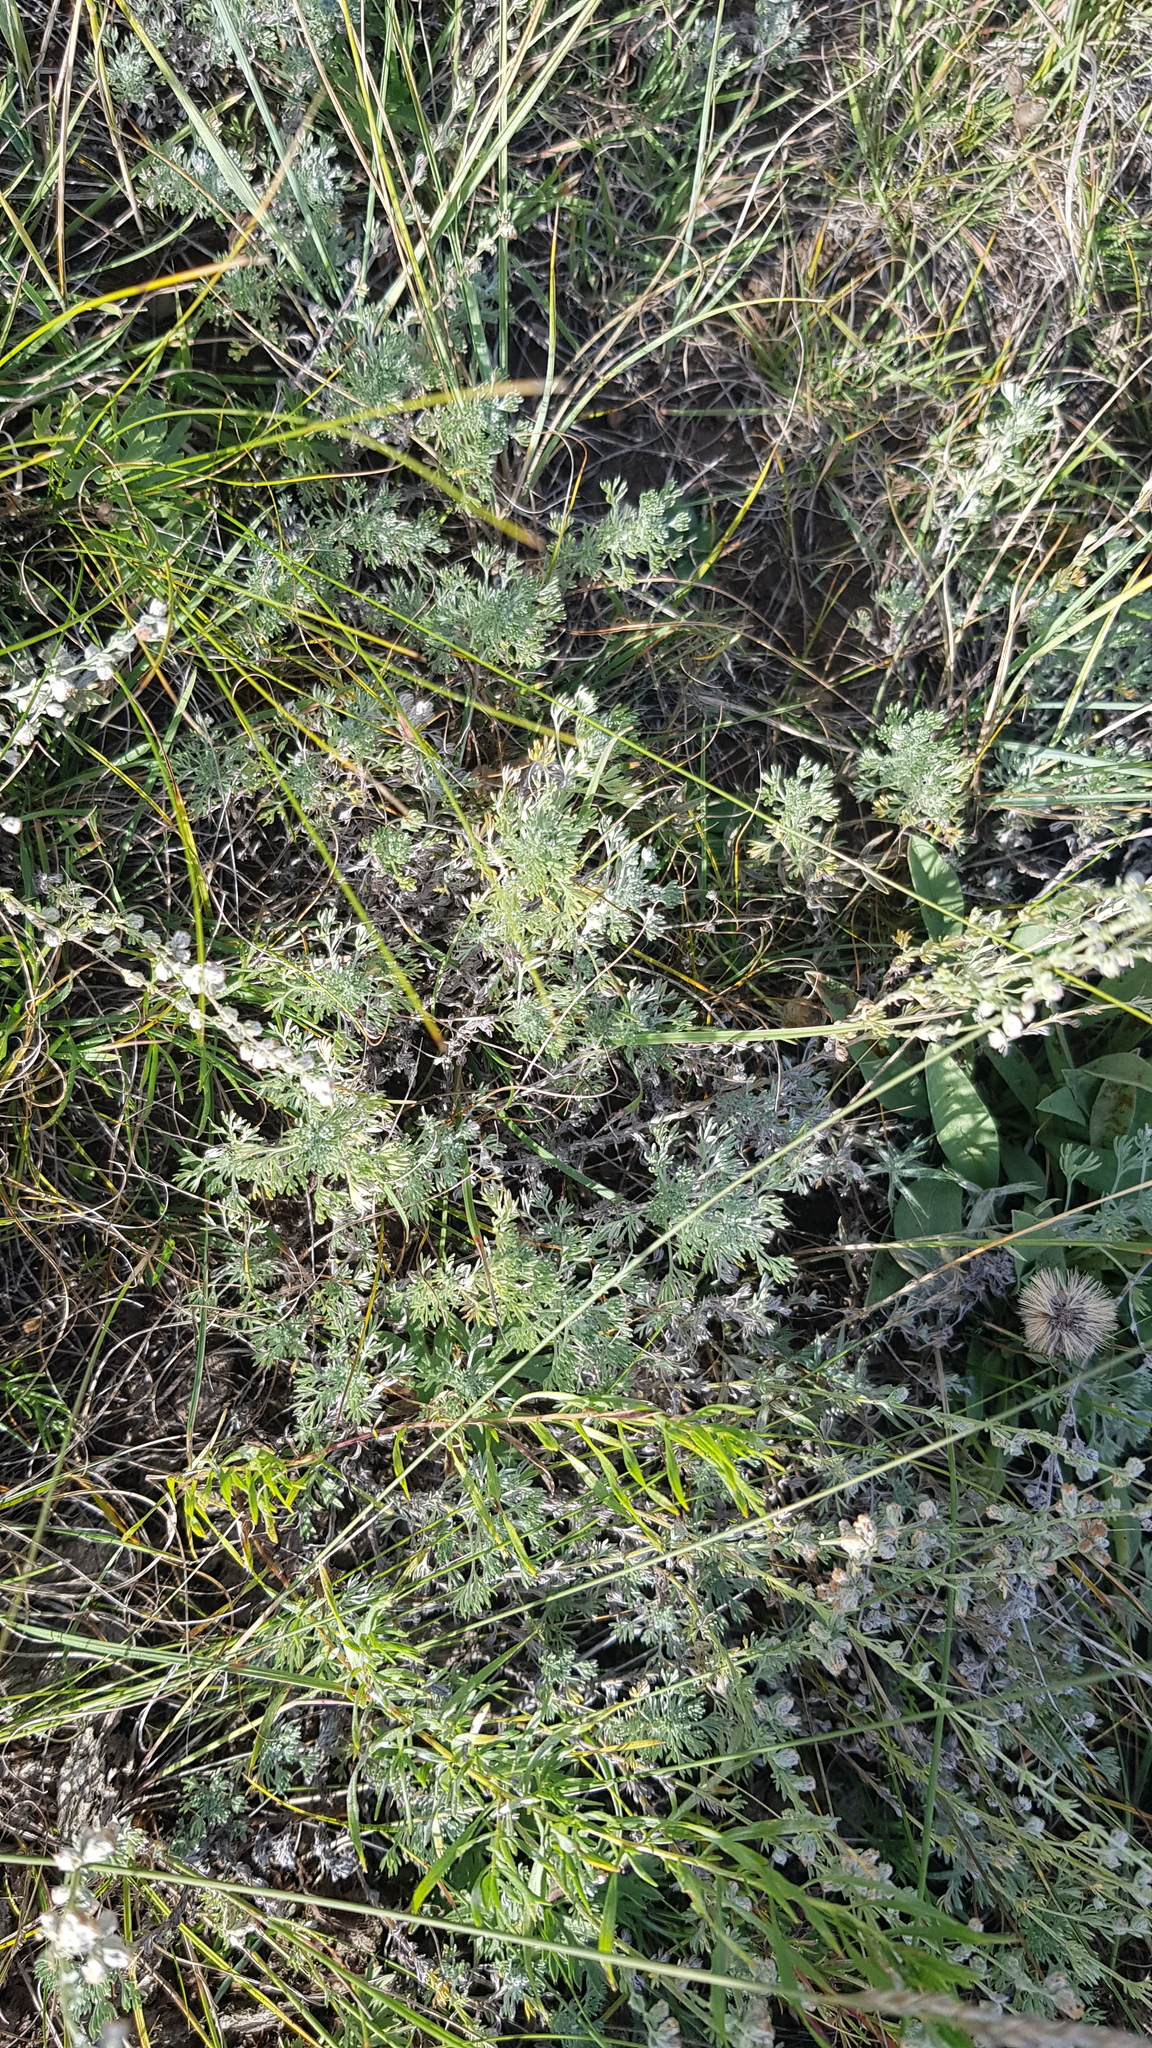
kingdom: Plantae
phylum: Tracheophyta
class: Magnoliopsida
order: Asterales
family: Asteraceae
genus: Artemisia
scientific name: Artemisia frigida
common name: Prairie sagewort
